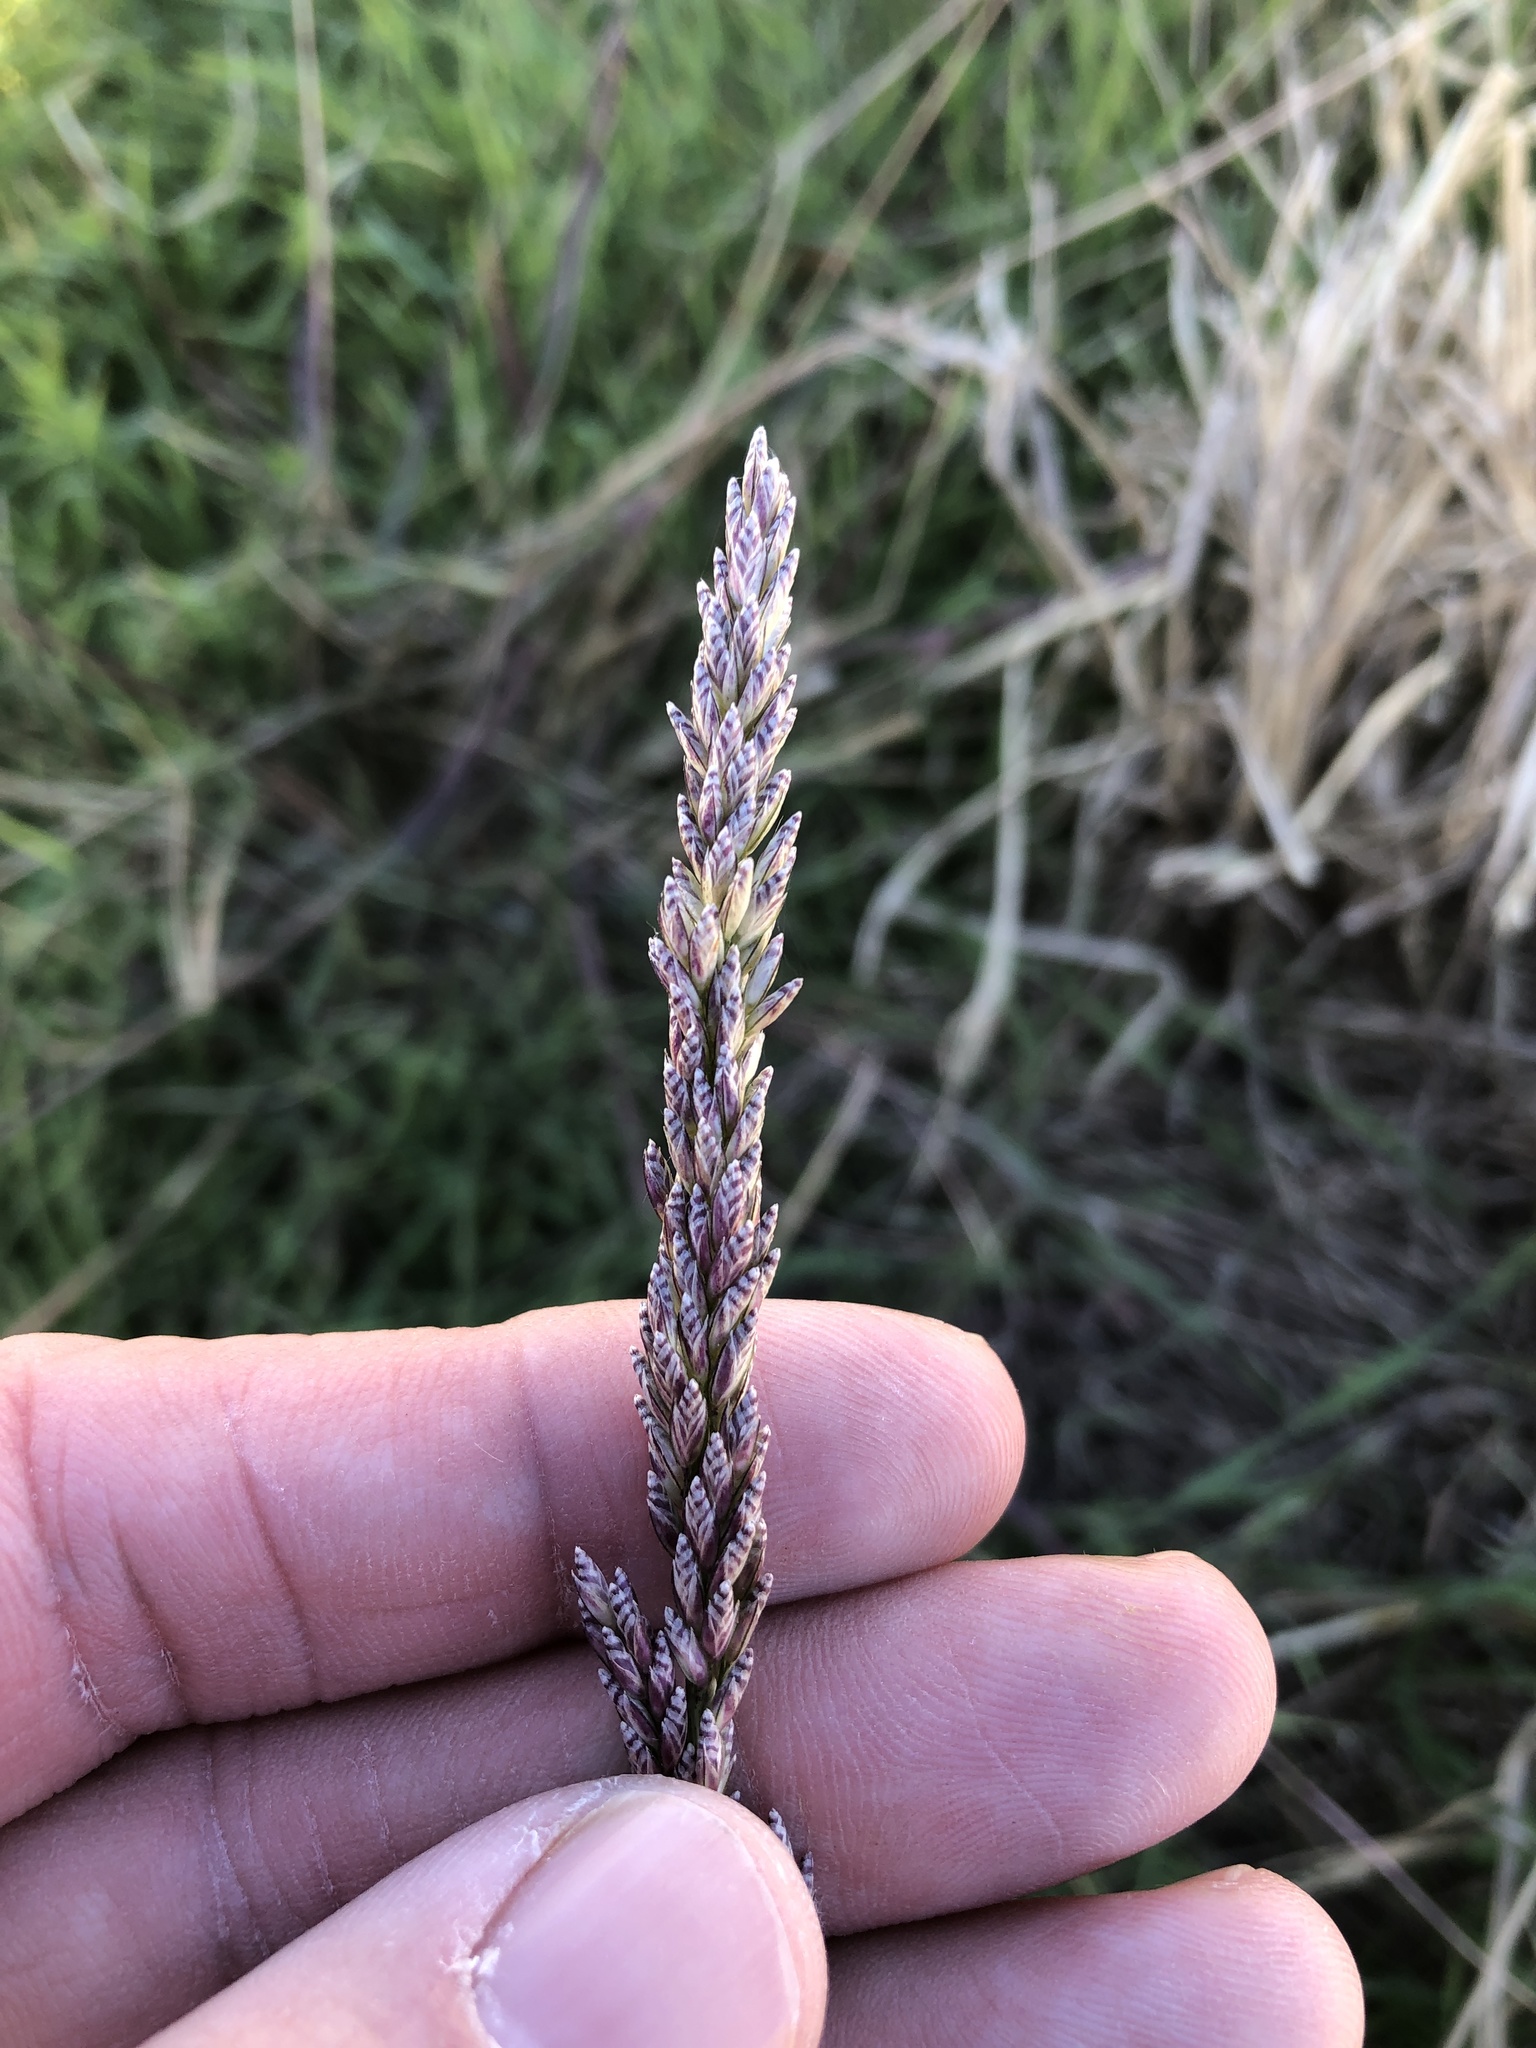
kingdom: Plantae
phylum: Tracheophyta
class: Liliopsida
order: Poales
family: Poaceae
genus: Tridens
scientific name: Tridens albescens
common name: White tridens
